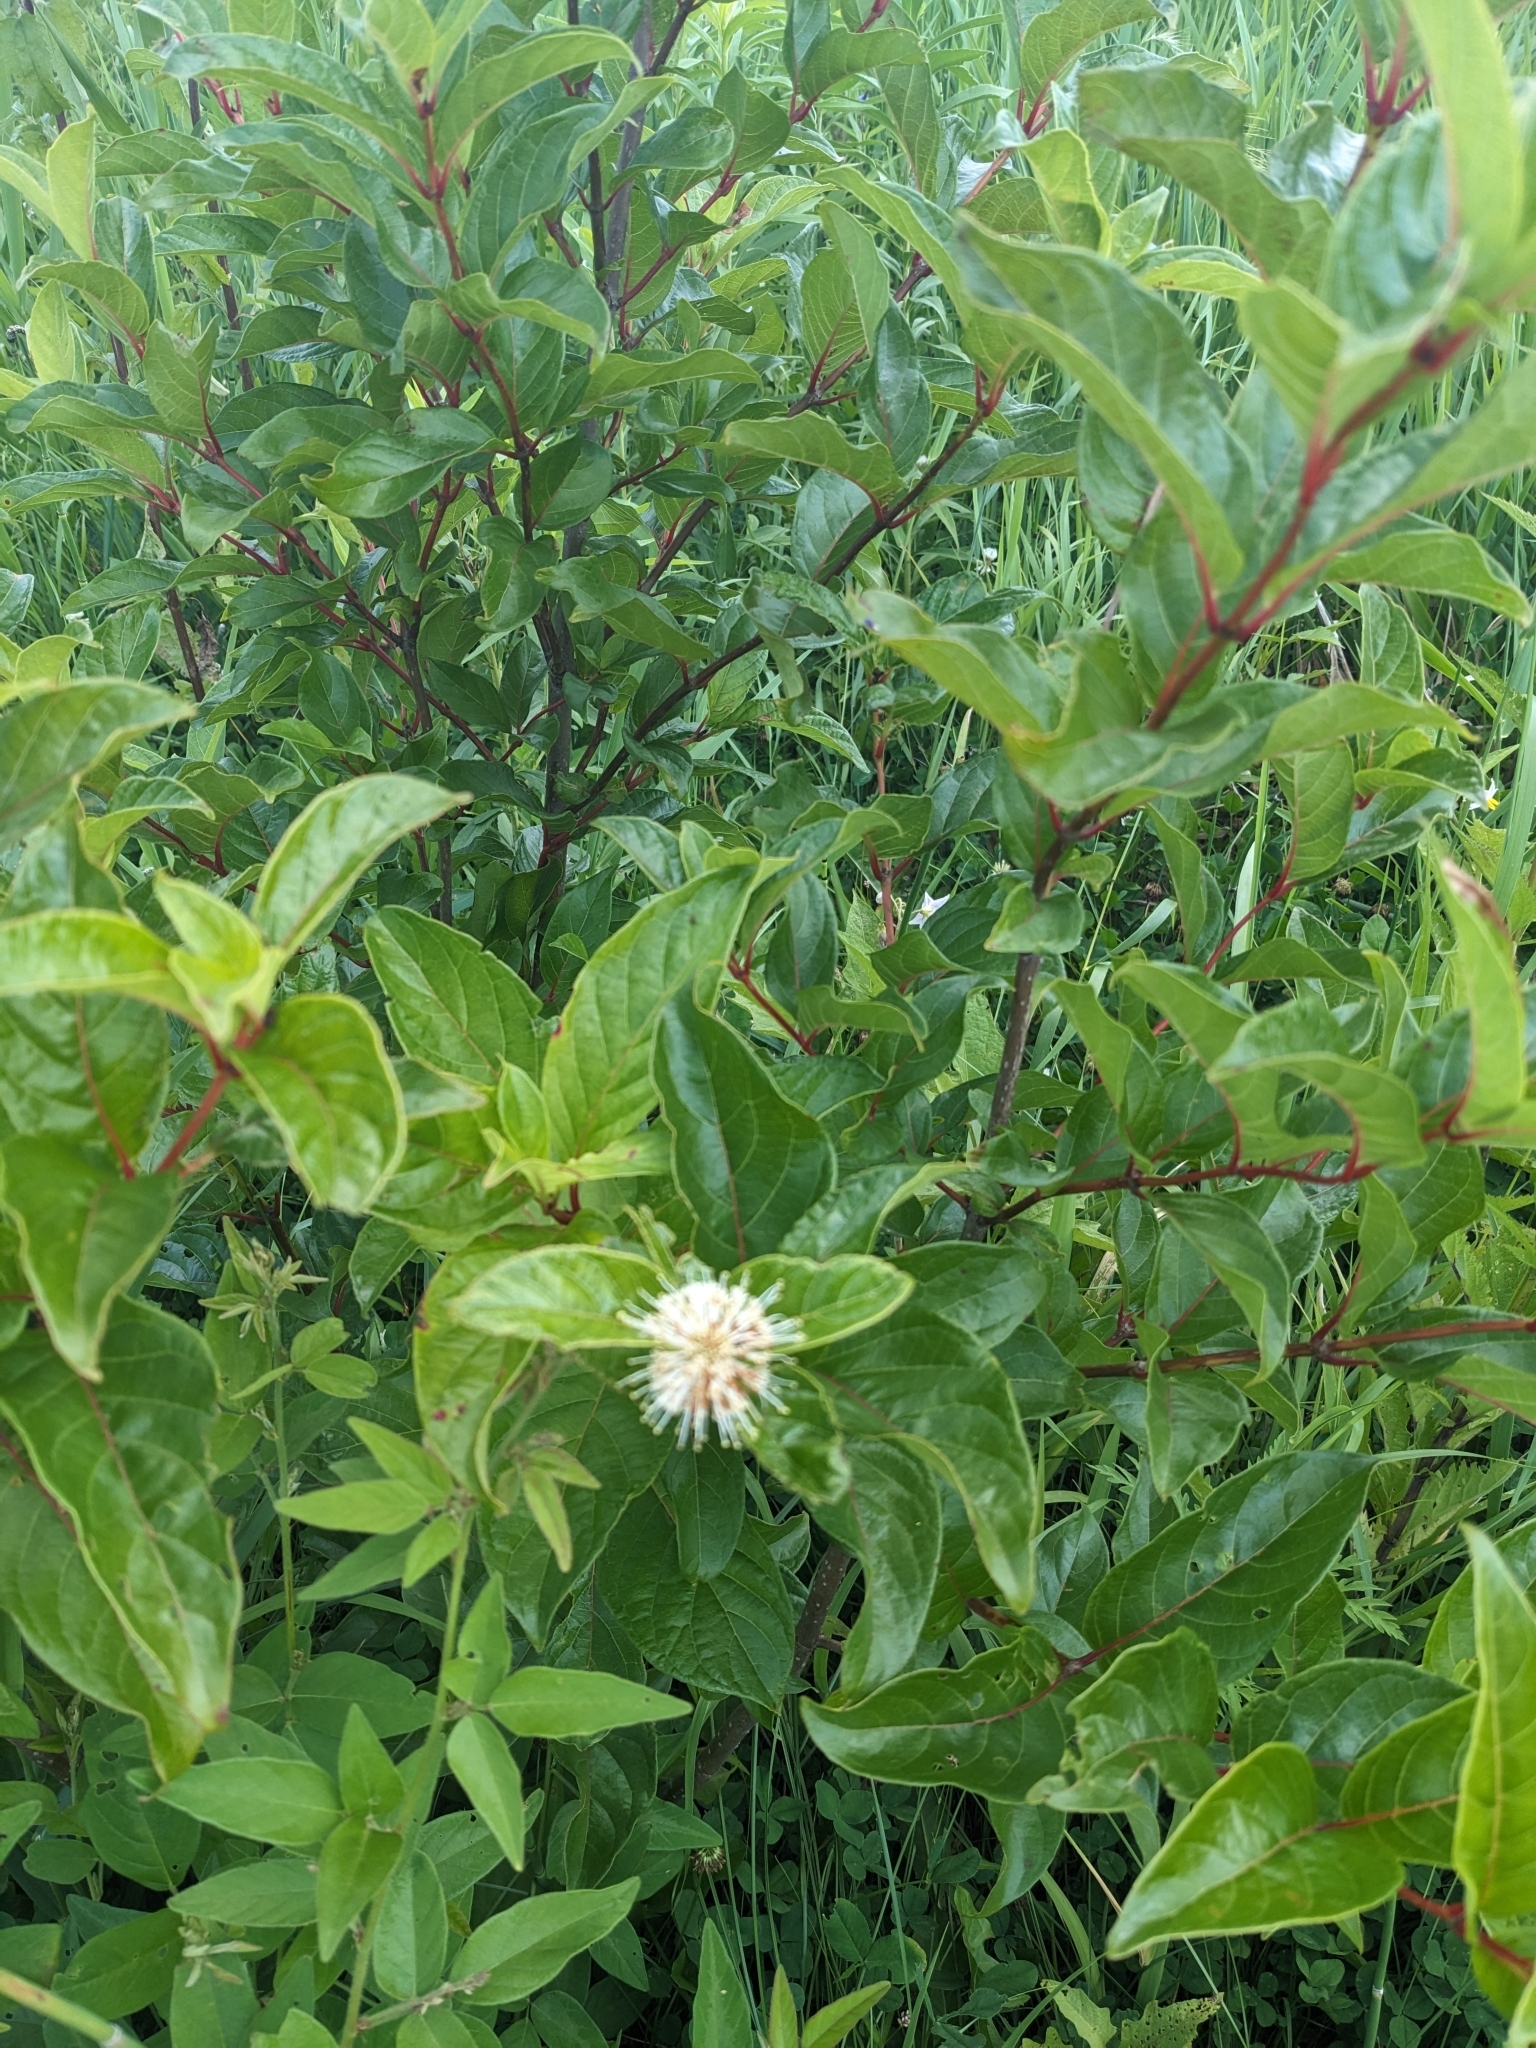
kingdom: Plantae
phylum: Tracheophyta
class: Magnoliopsida
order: Gentianales
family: Rubiaceae
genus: Cephalanthus
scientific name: Cephalanthus occidentalis
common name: Button-willow
